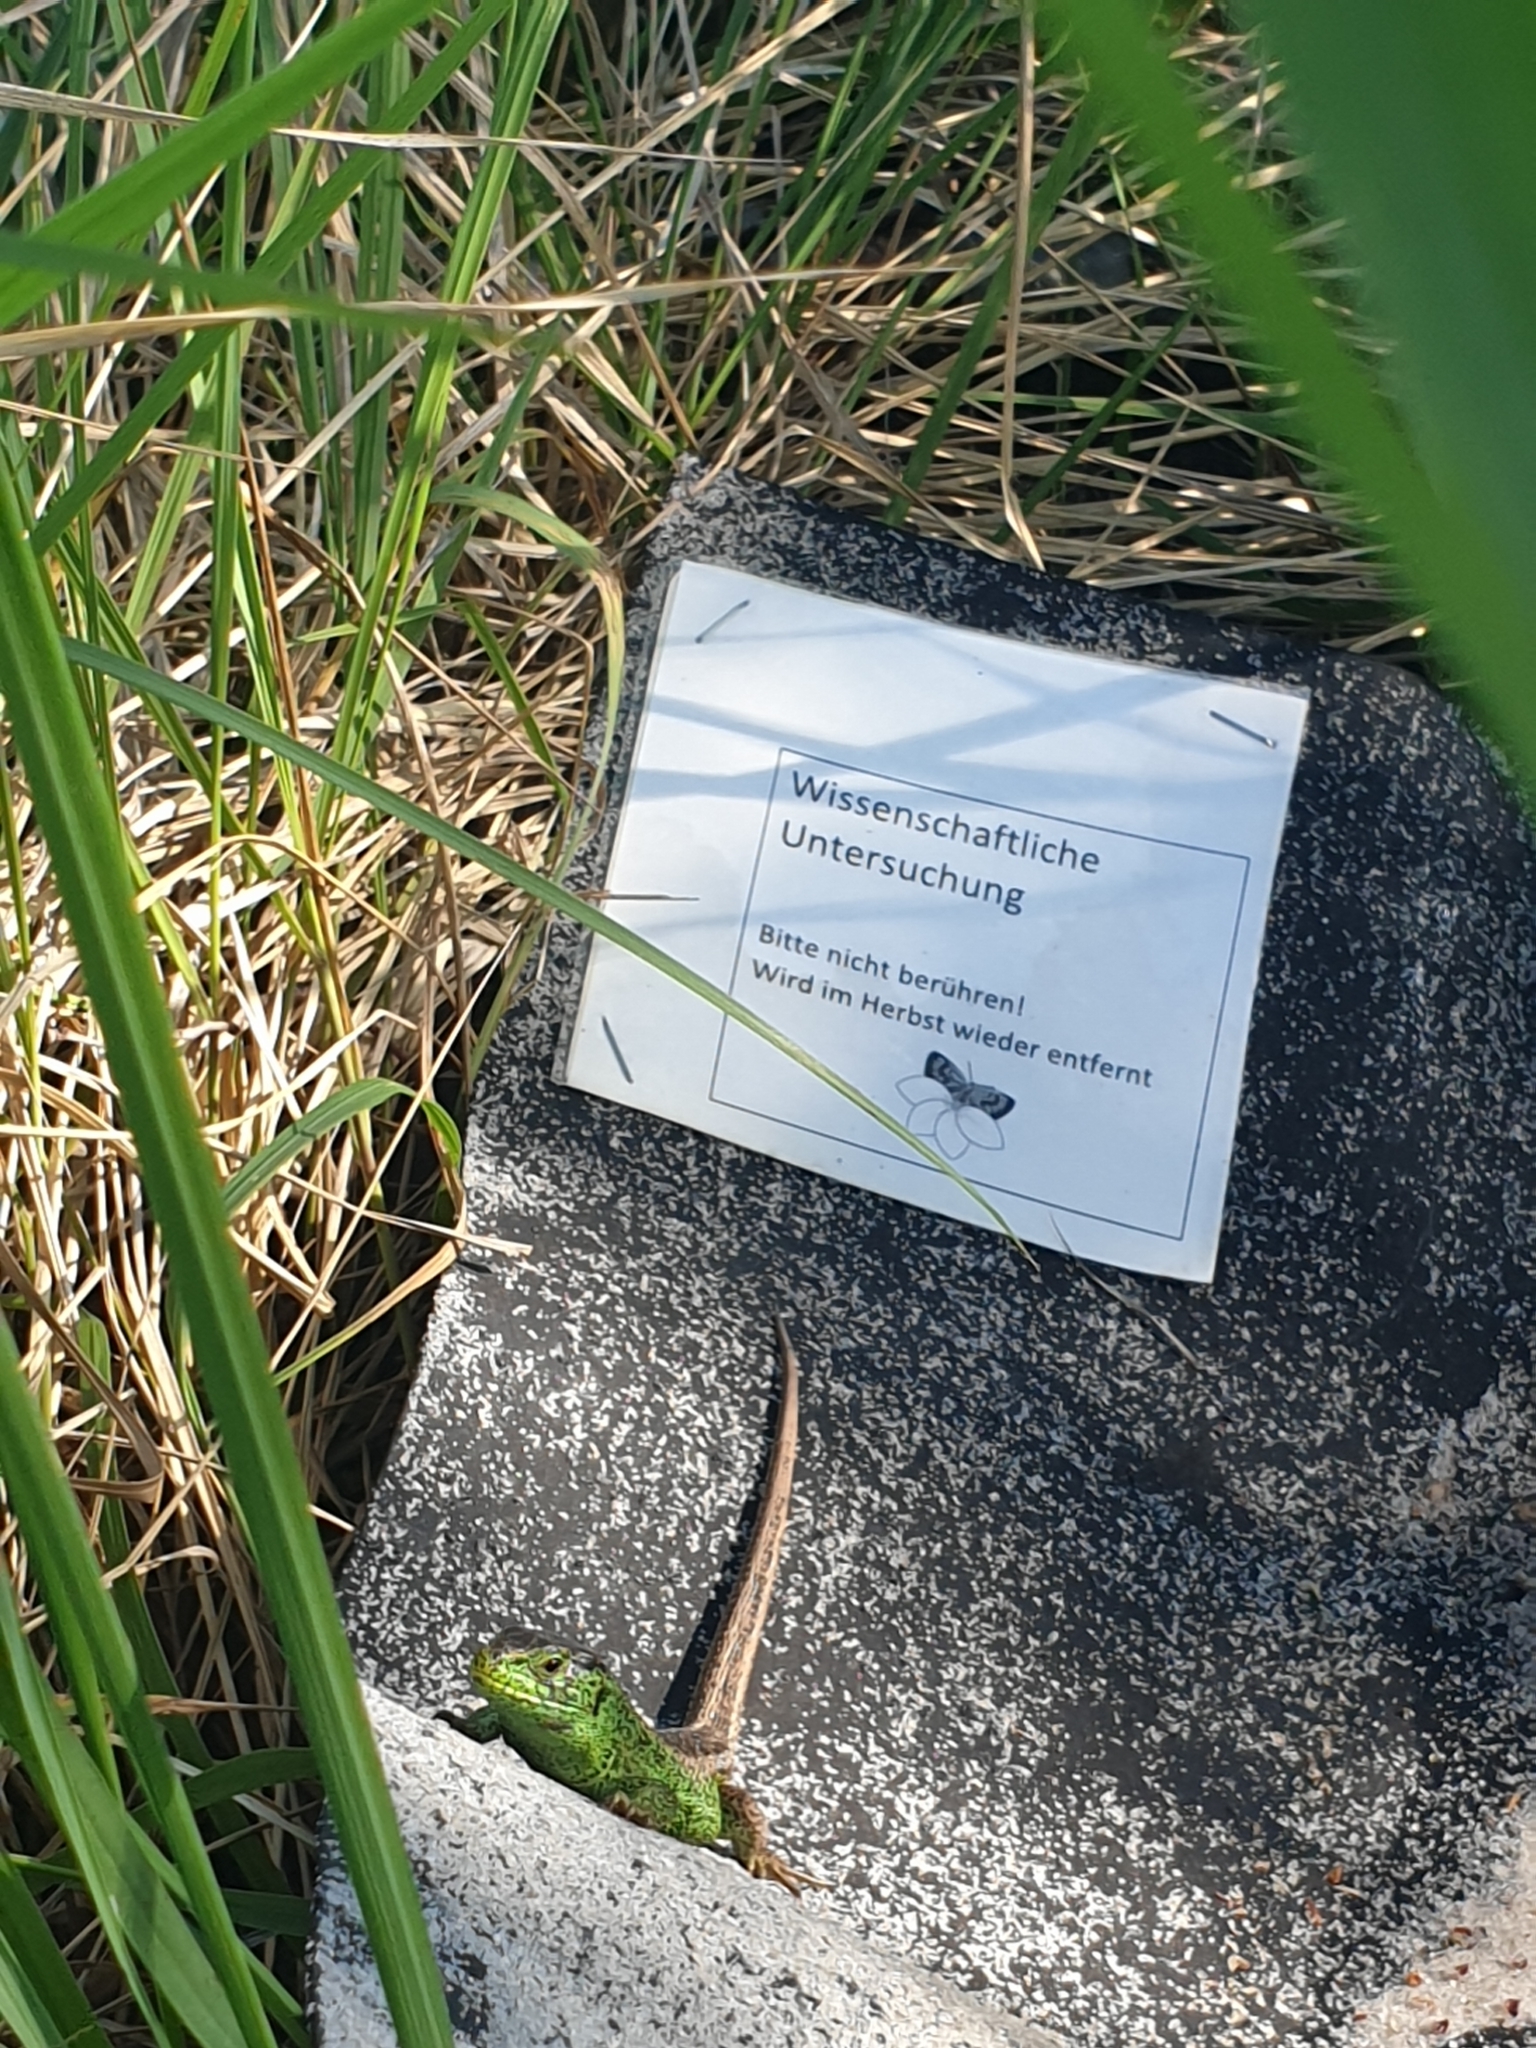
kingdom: Animalia
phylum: Chordata
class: Squamata
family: Lacertidae
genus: Lacerta
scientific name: Lacerta agilis
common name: Sand lizard
